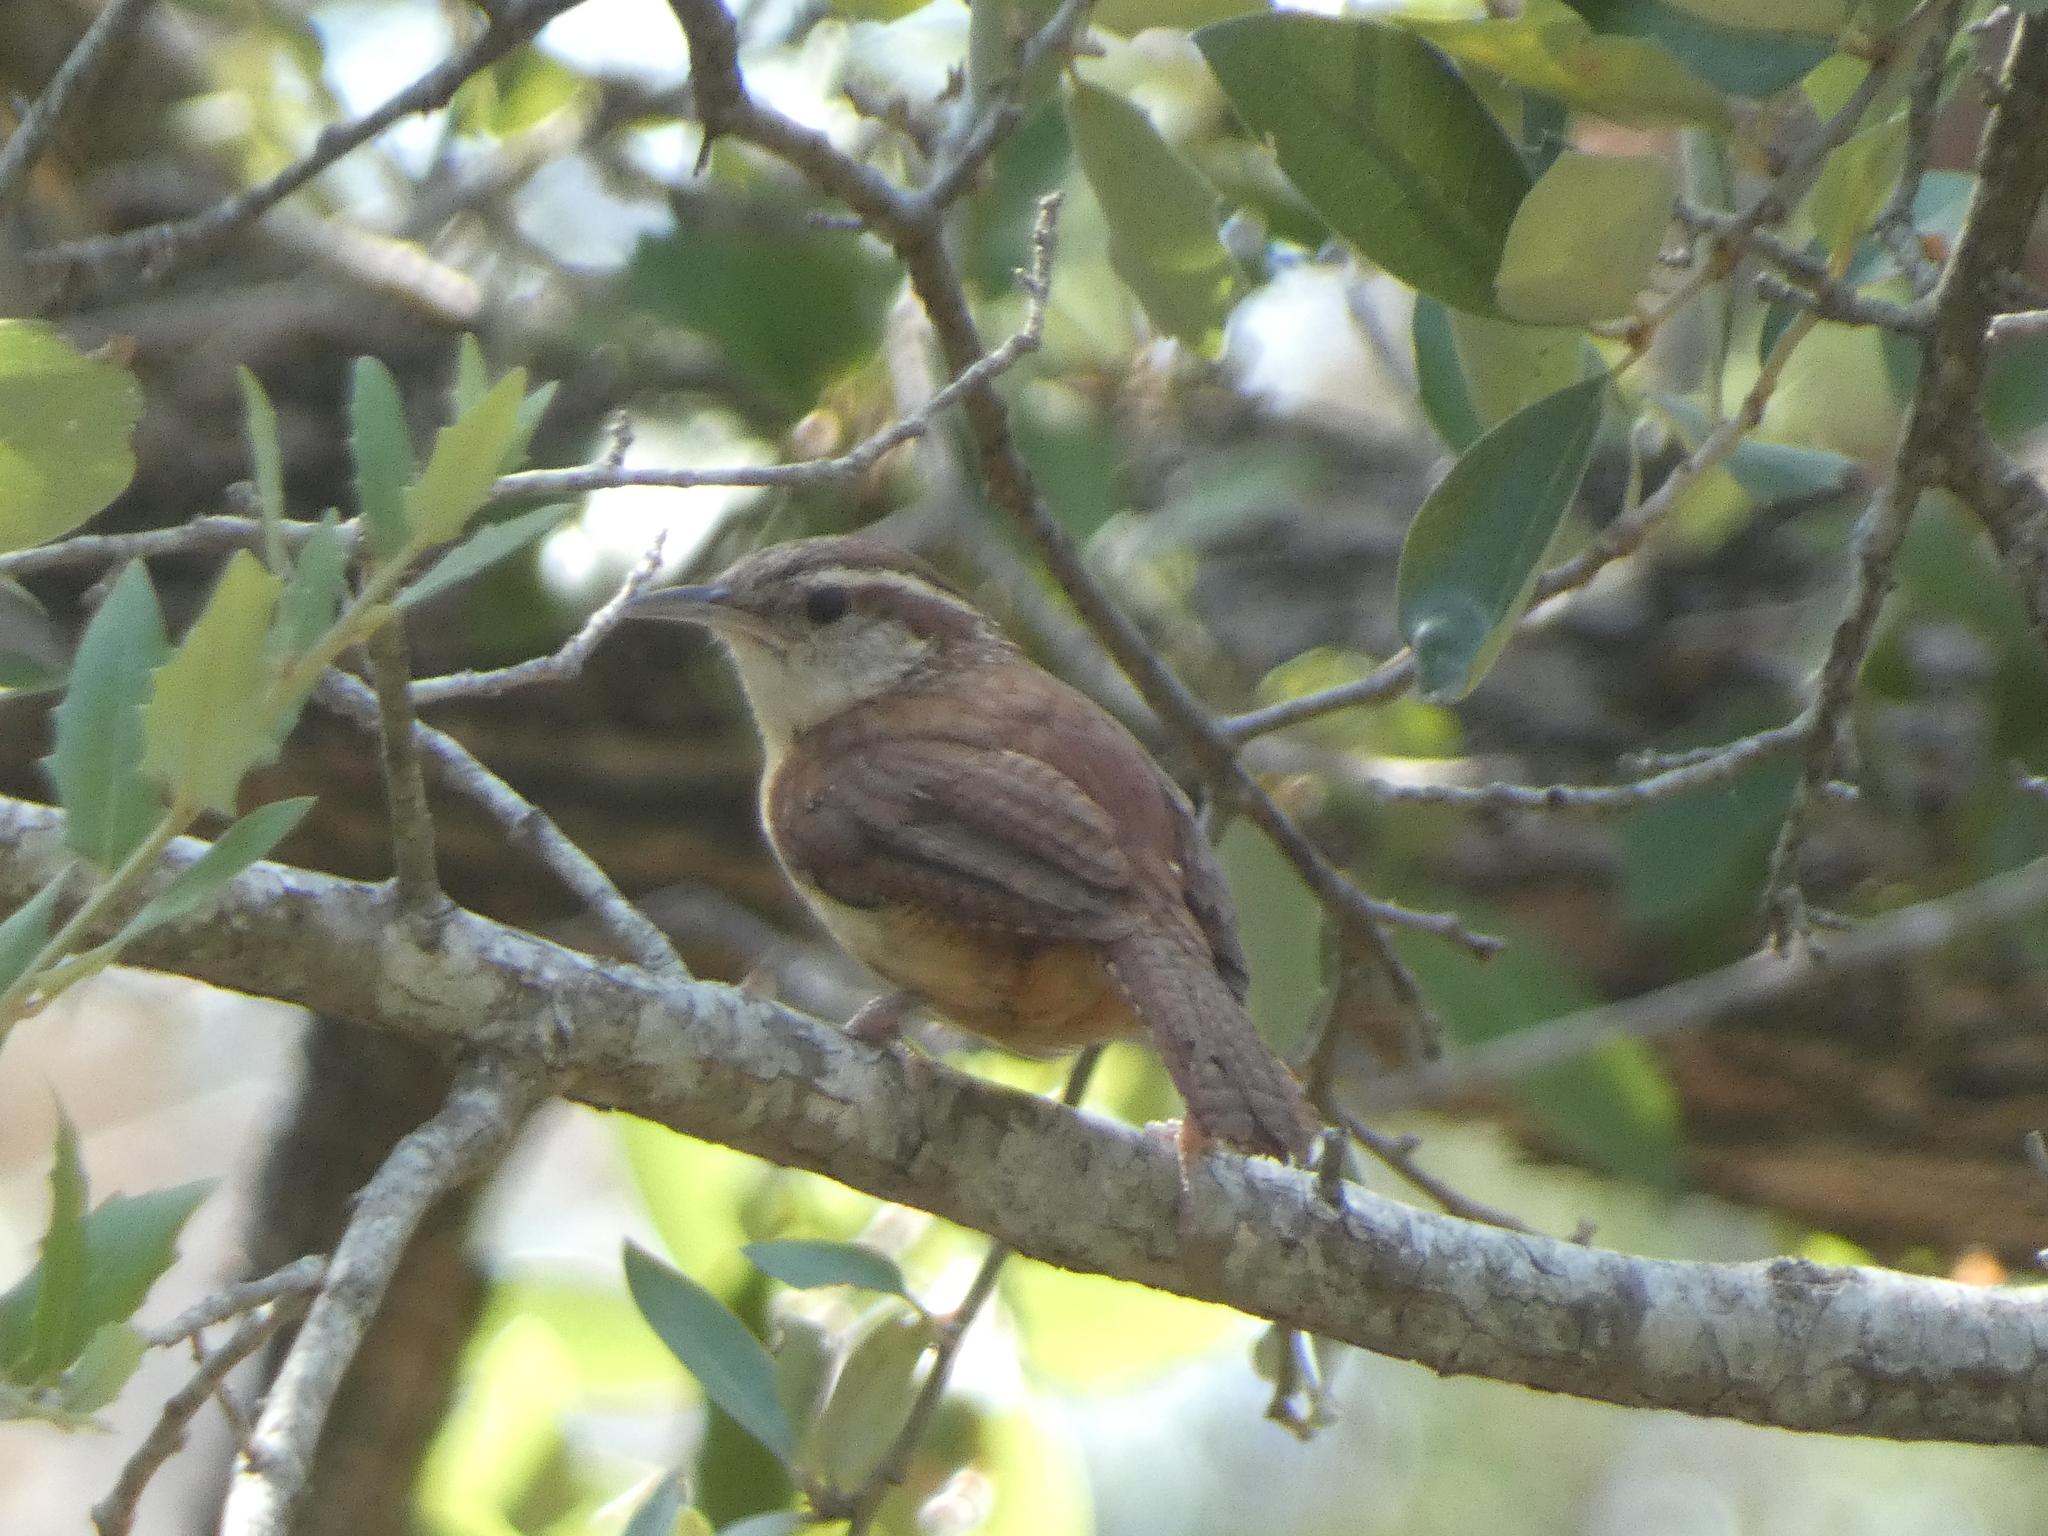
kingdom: Animalia
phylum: Chordata
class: Aves
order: Passeriformes
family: Troglodytidae
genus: Thryothorus
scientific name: Thryothorus ludovicianus
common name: Carolina wren
